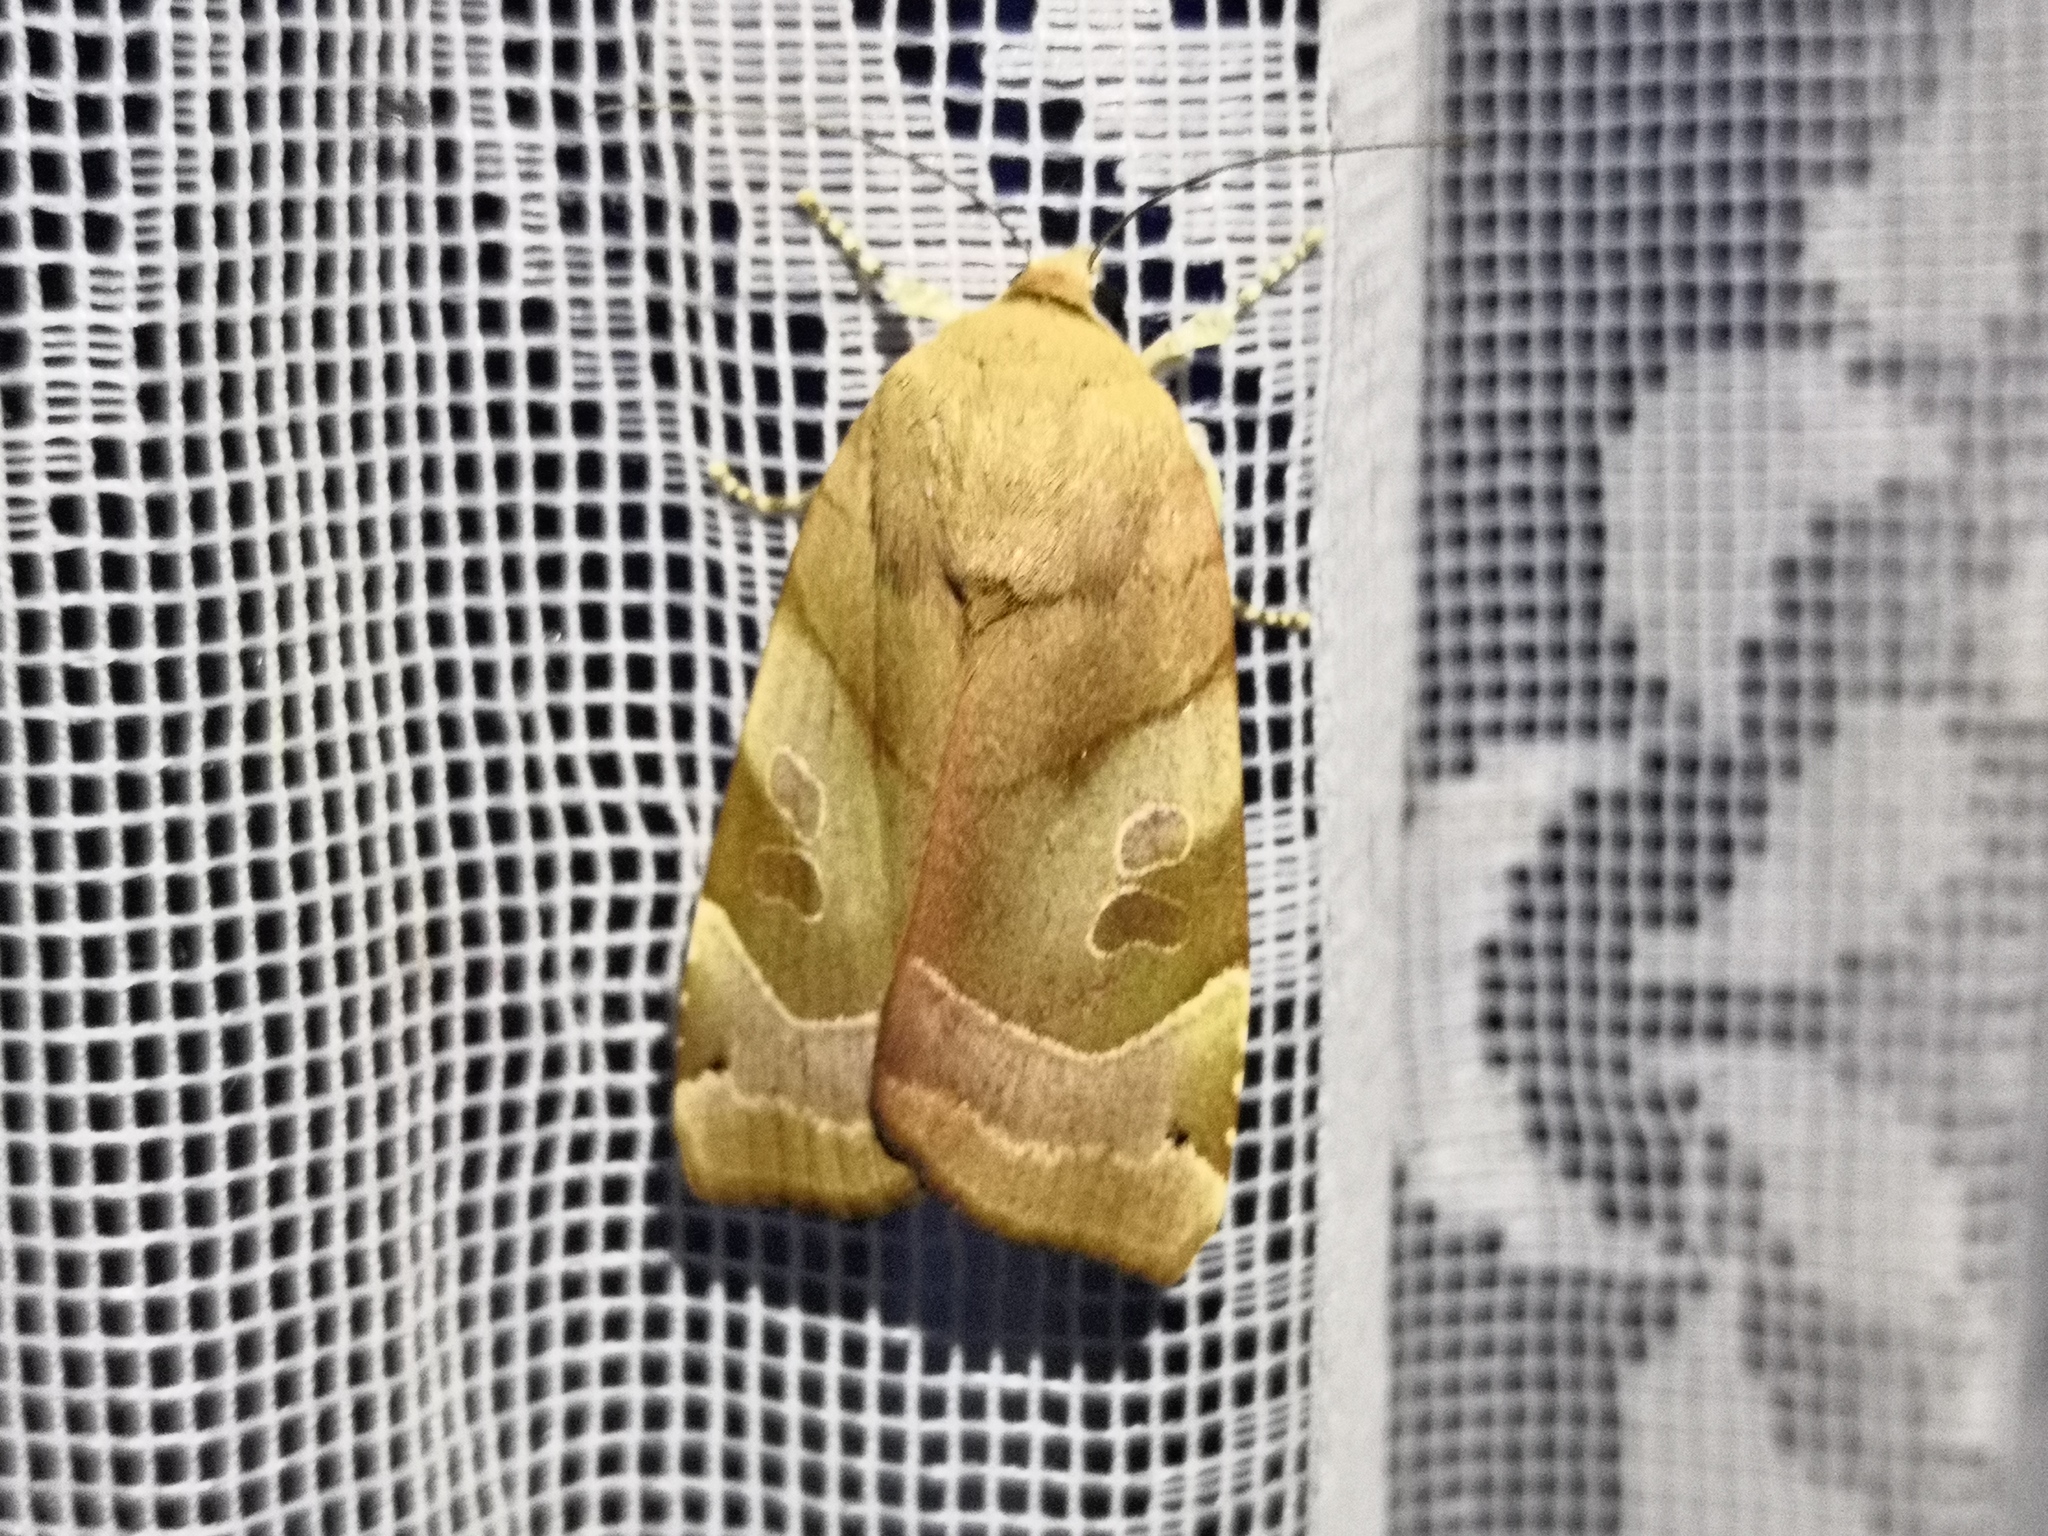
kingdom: Animalia
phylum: Arthropoda
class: Insecta
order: Lepidoptera
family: Noctuidae
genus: Noctua
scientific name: Noctua fimbriata
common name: Broad-bordered yellow underwing
